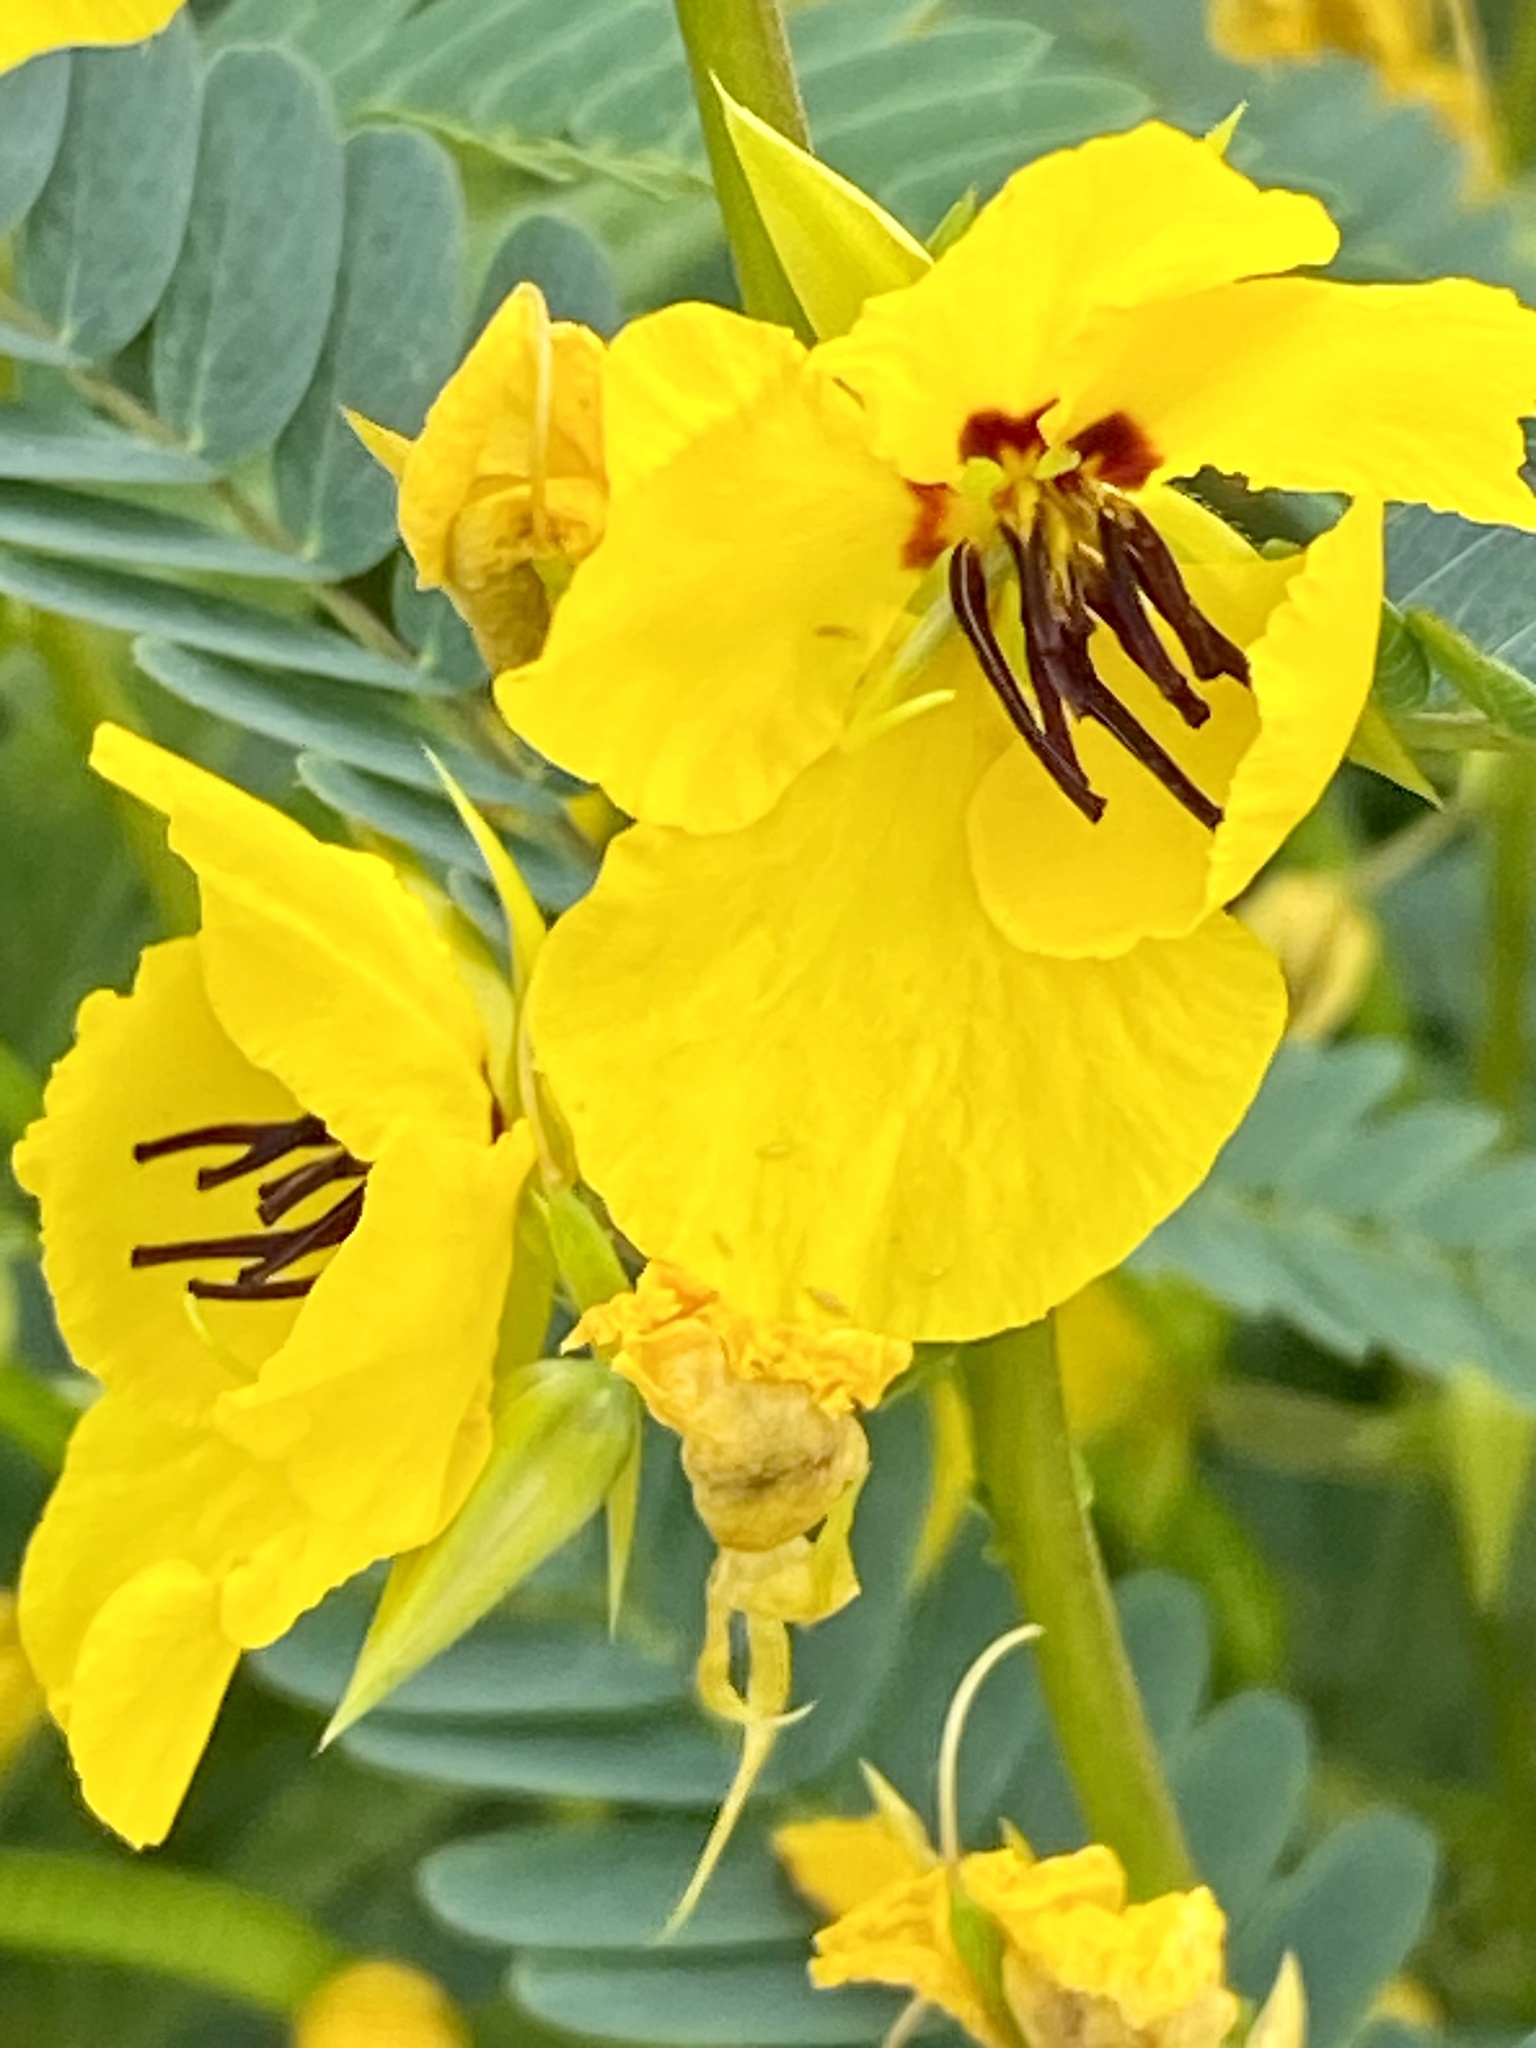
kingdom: Plantae
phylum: Tracheophyta
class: Magnoliopsida
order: Fabales
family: Fabaceae
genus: Chamaecrista
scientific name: Chamaecrista fasciculata
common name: Golden cassia
